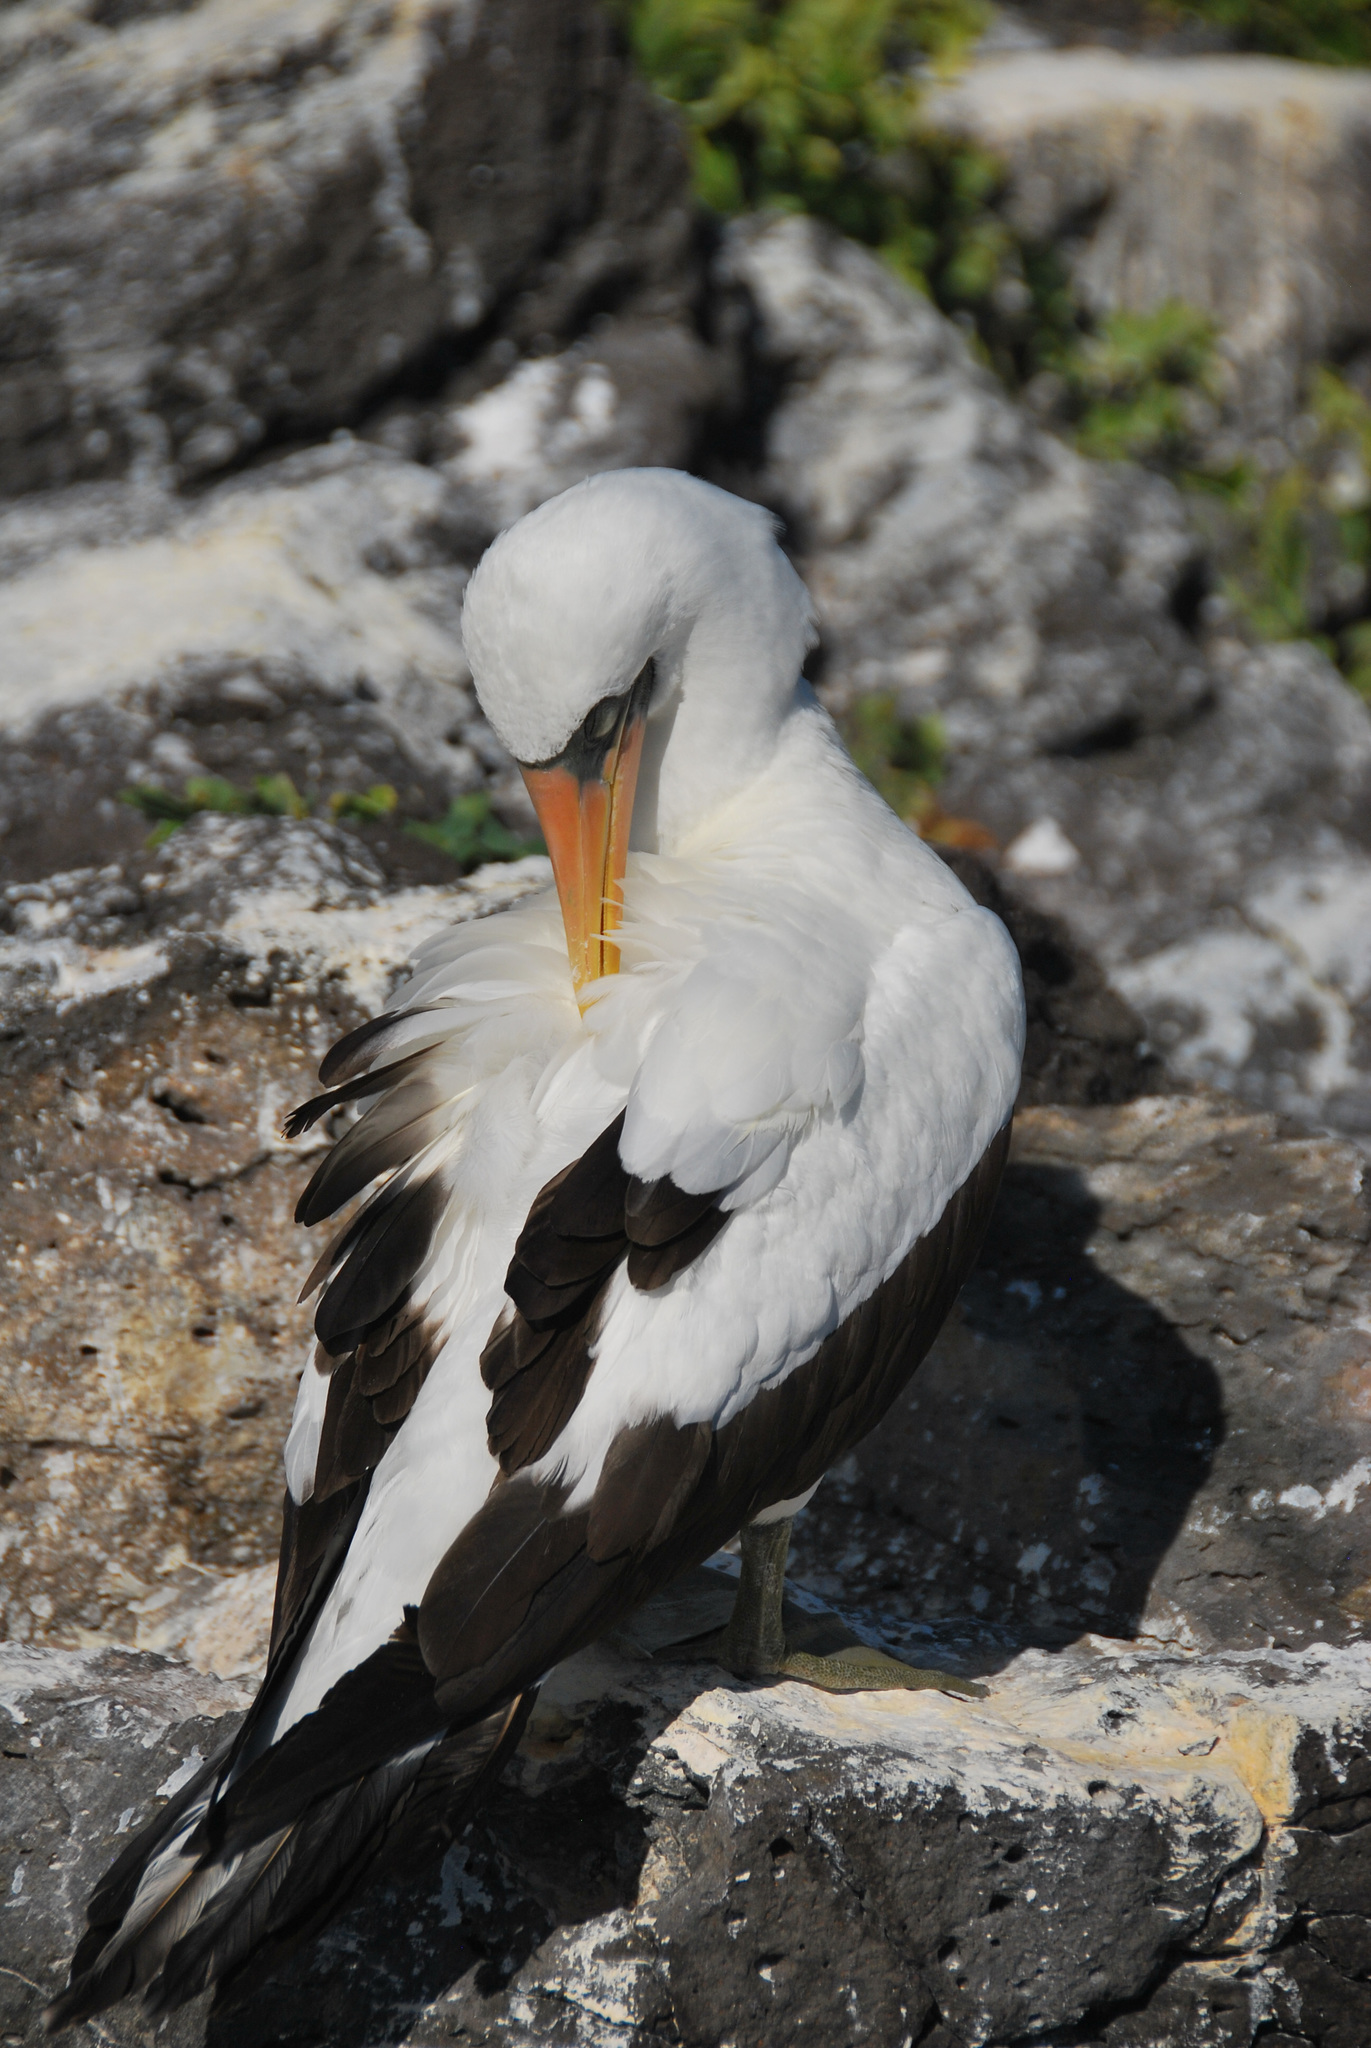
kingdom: Animalia
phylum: Chordata
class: Aves
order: Suliformes
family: Sulidae
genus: Sula
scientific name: Sula granti
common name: Nazca booby
